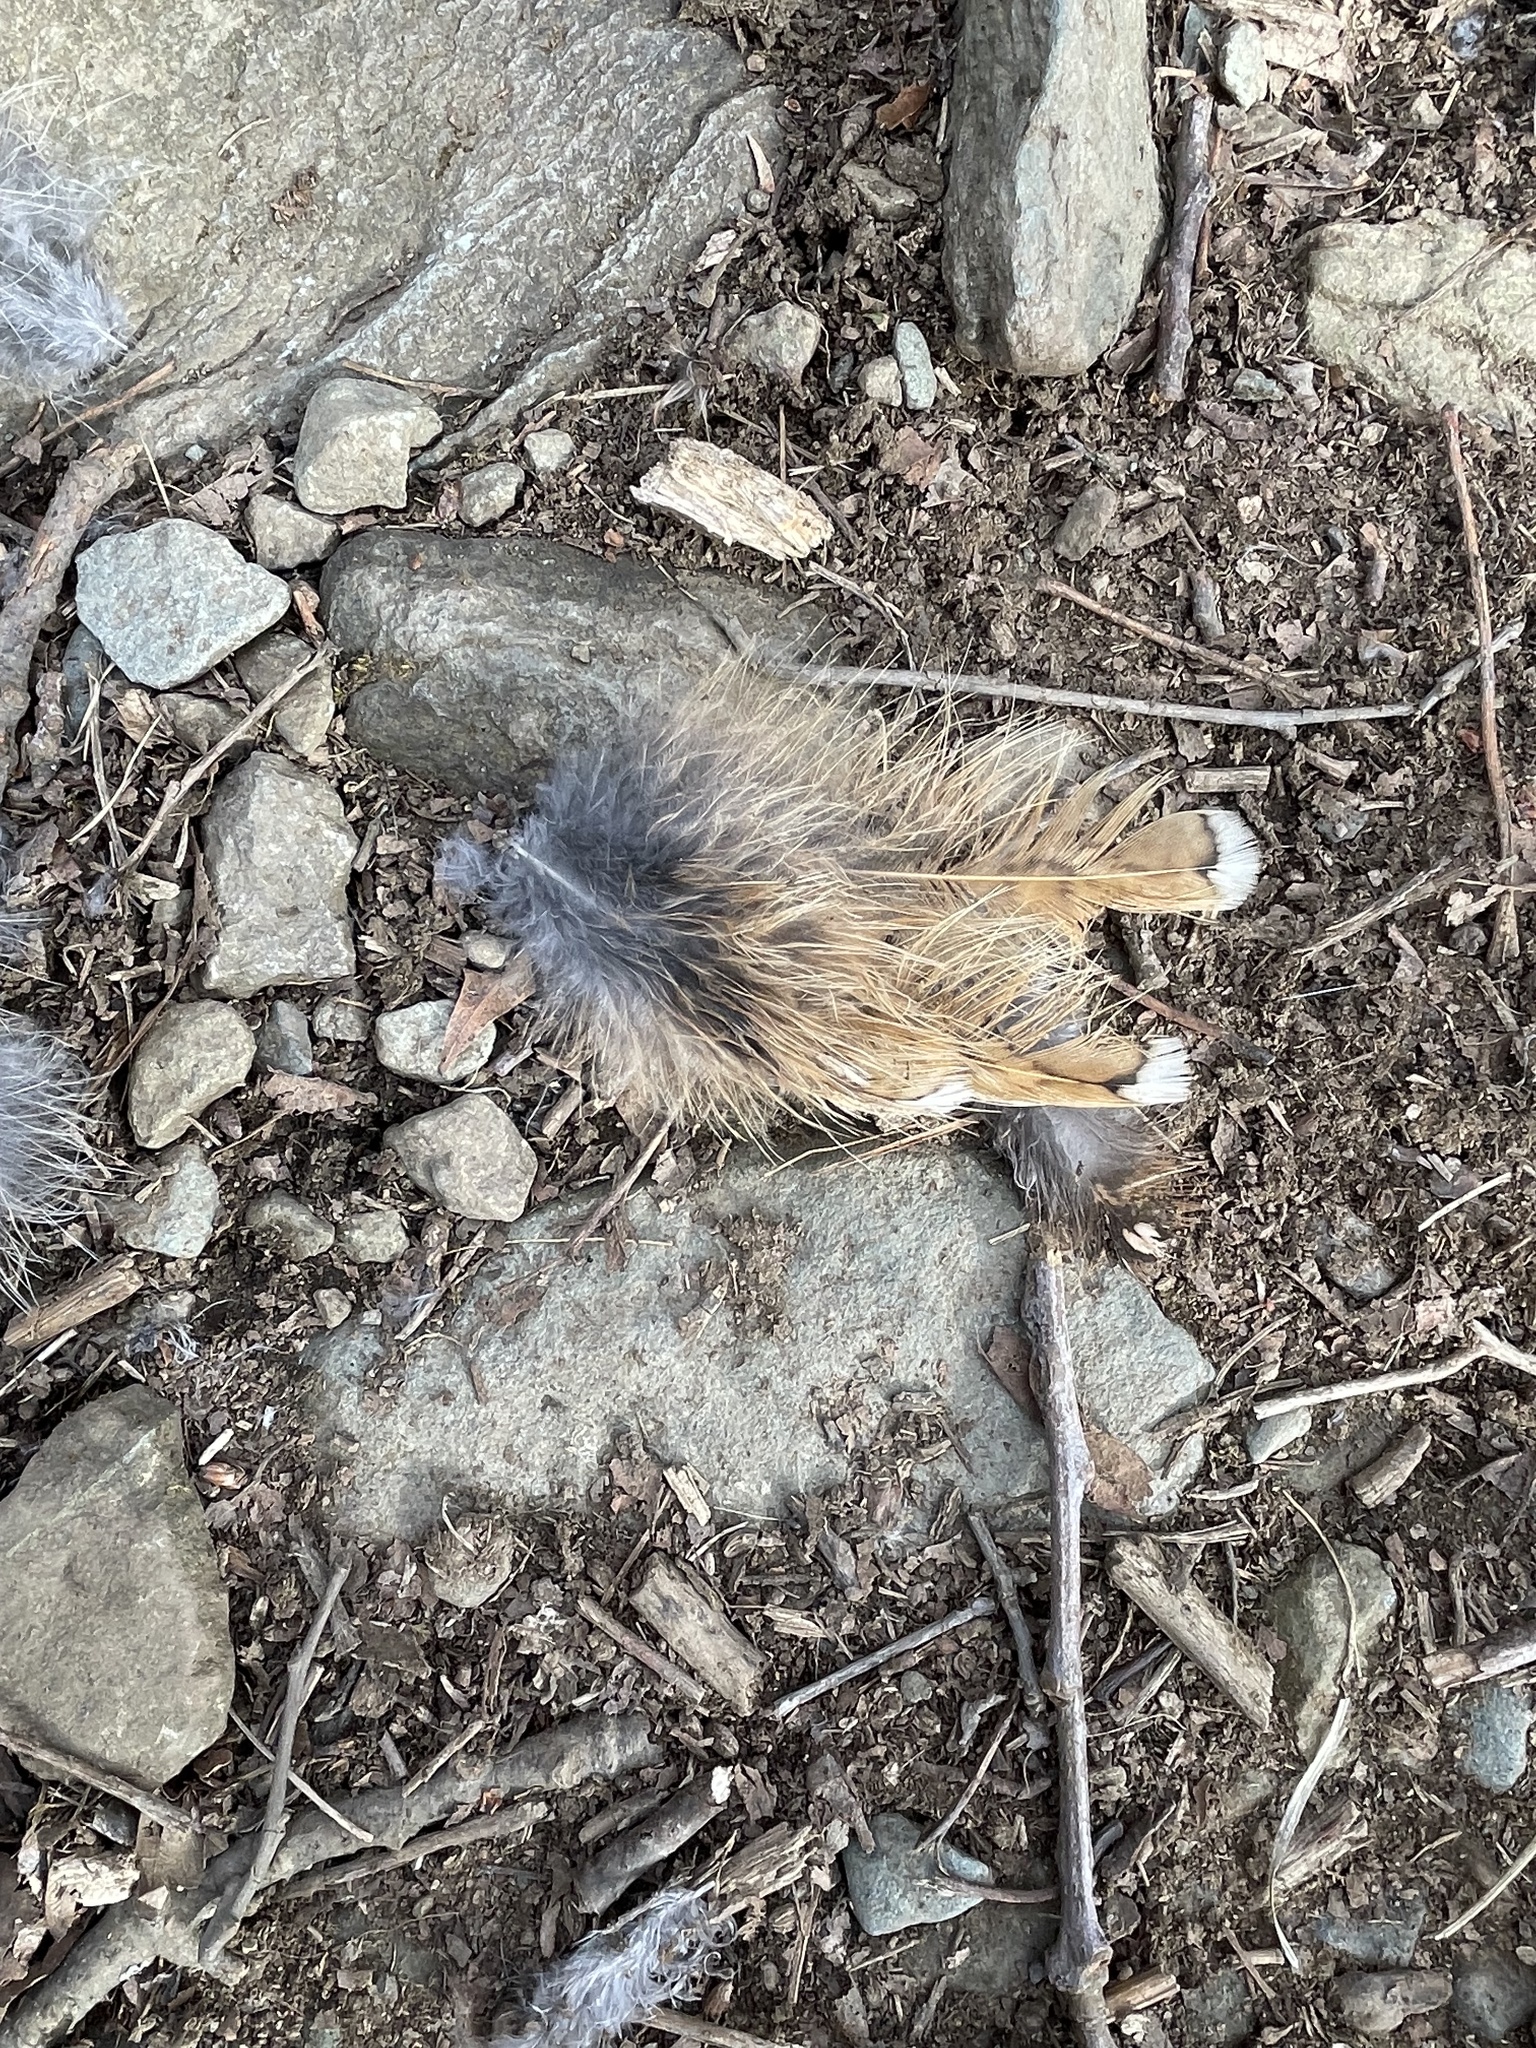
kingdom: Animalia
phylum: Chordata
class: Aves
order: Galliformes
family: Phasianidae
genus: Bonasa
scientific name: Bonasa umbellus
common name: Ruffed grouse
